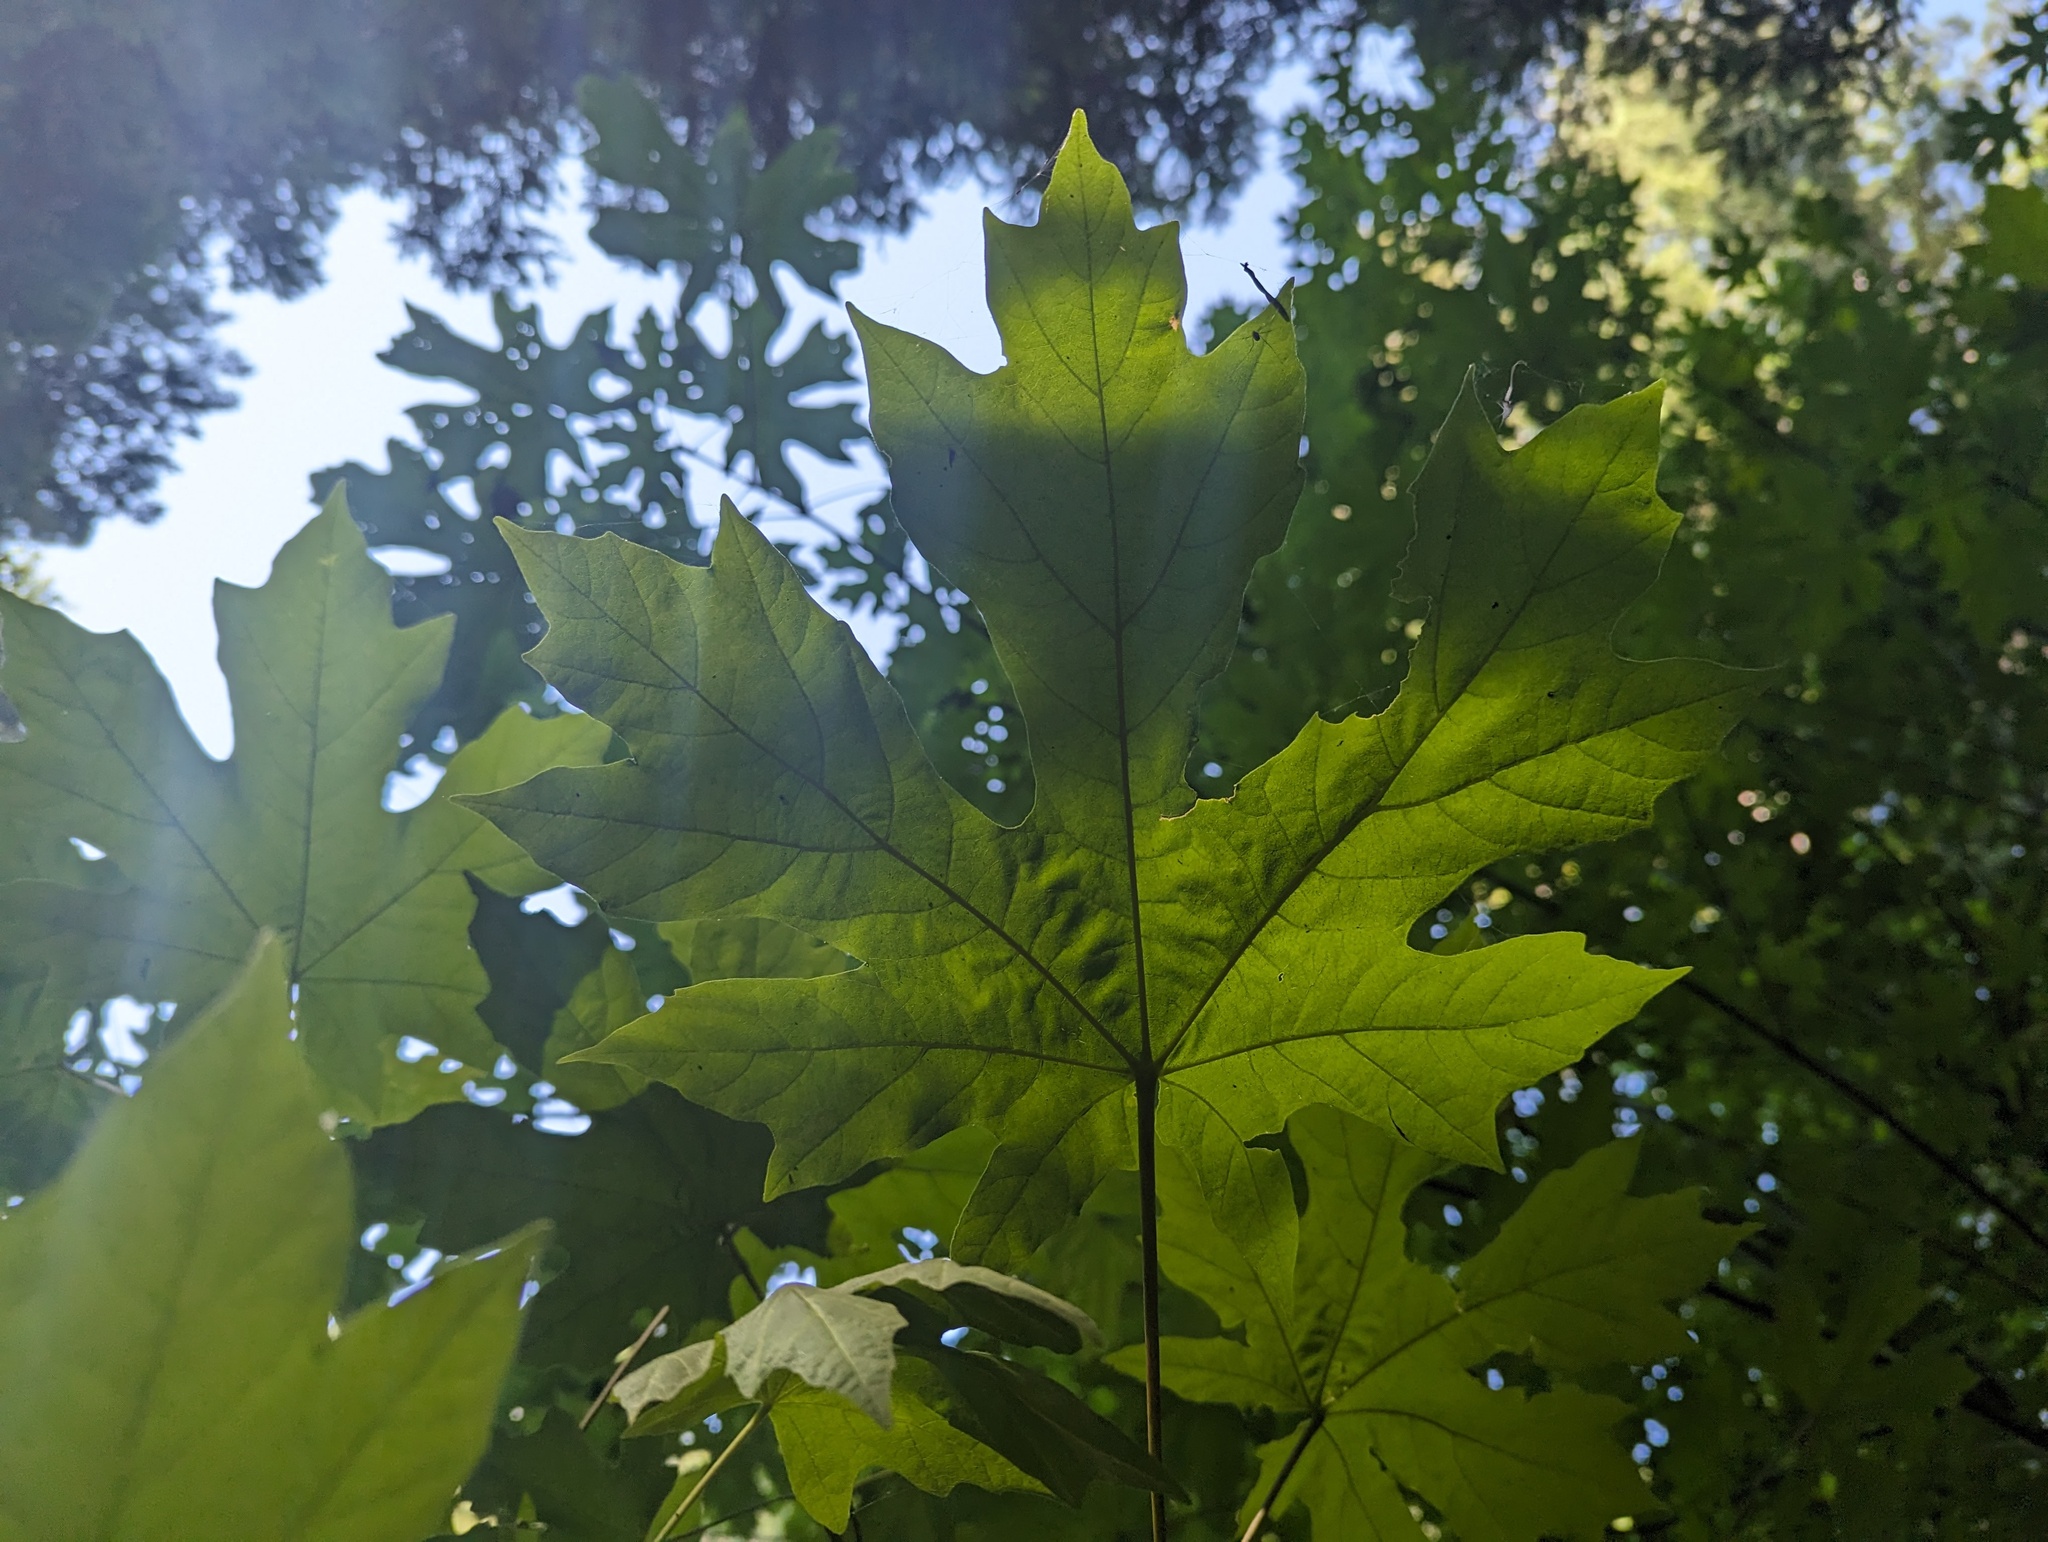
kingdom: Plantae
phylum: Tracheophyta
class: Magnoliopsida
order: Sapindales
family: Sapindaceae
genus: Acer
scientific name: Acer macrophyllum
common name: Oregon maple
